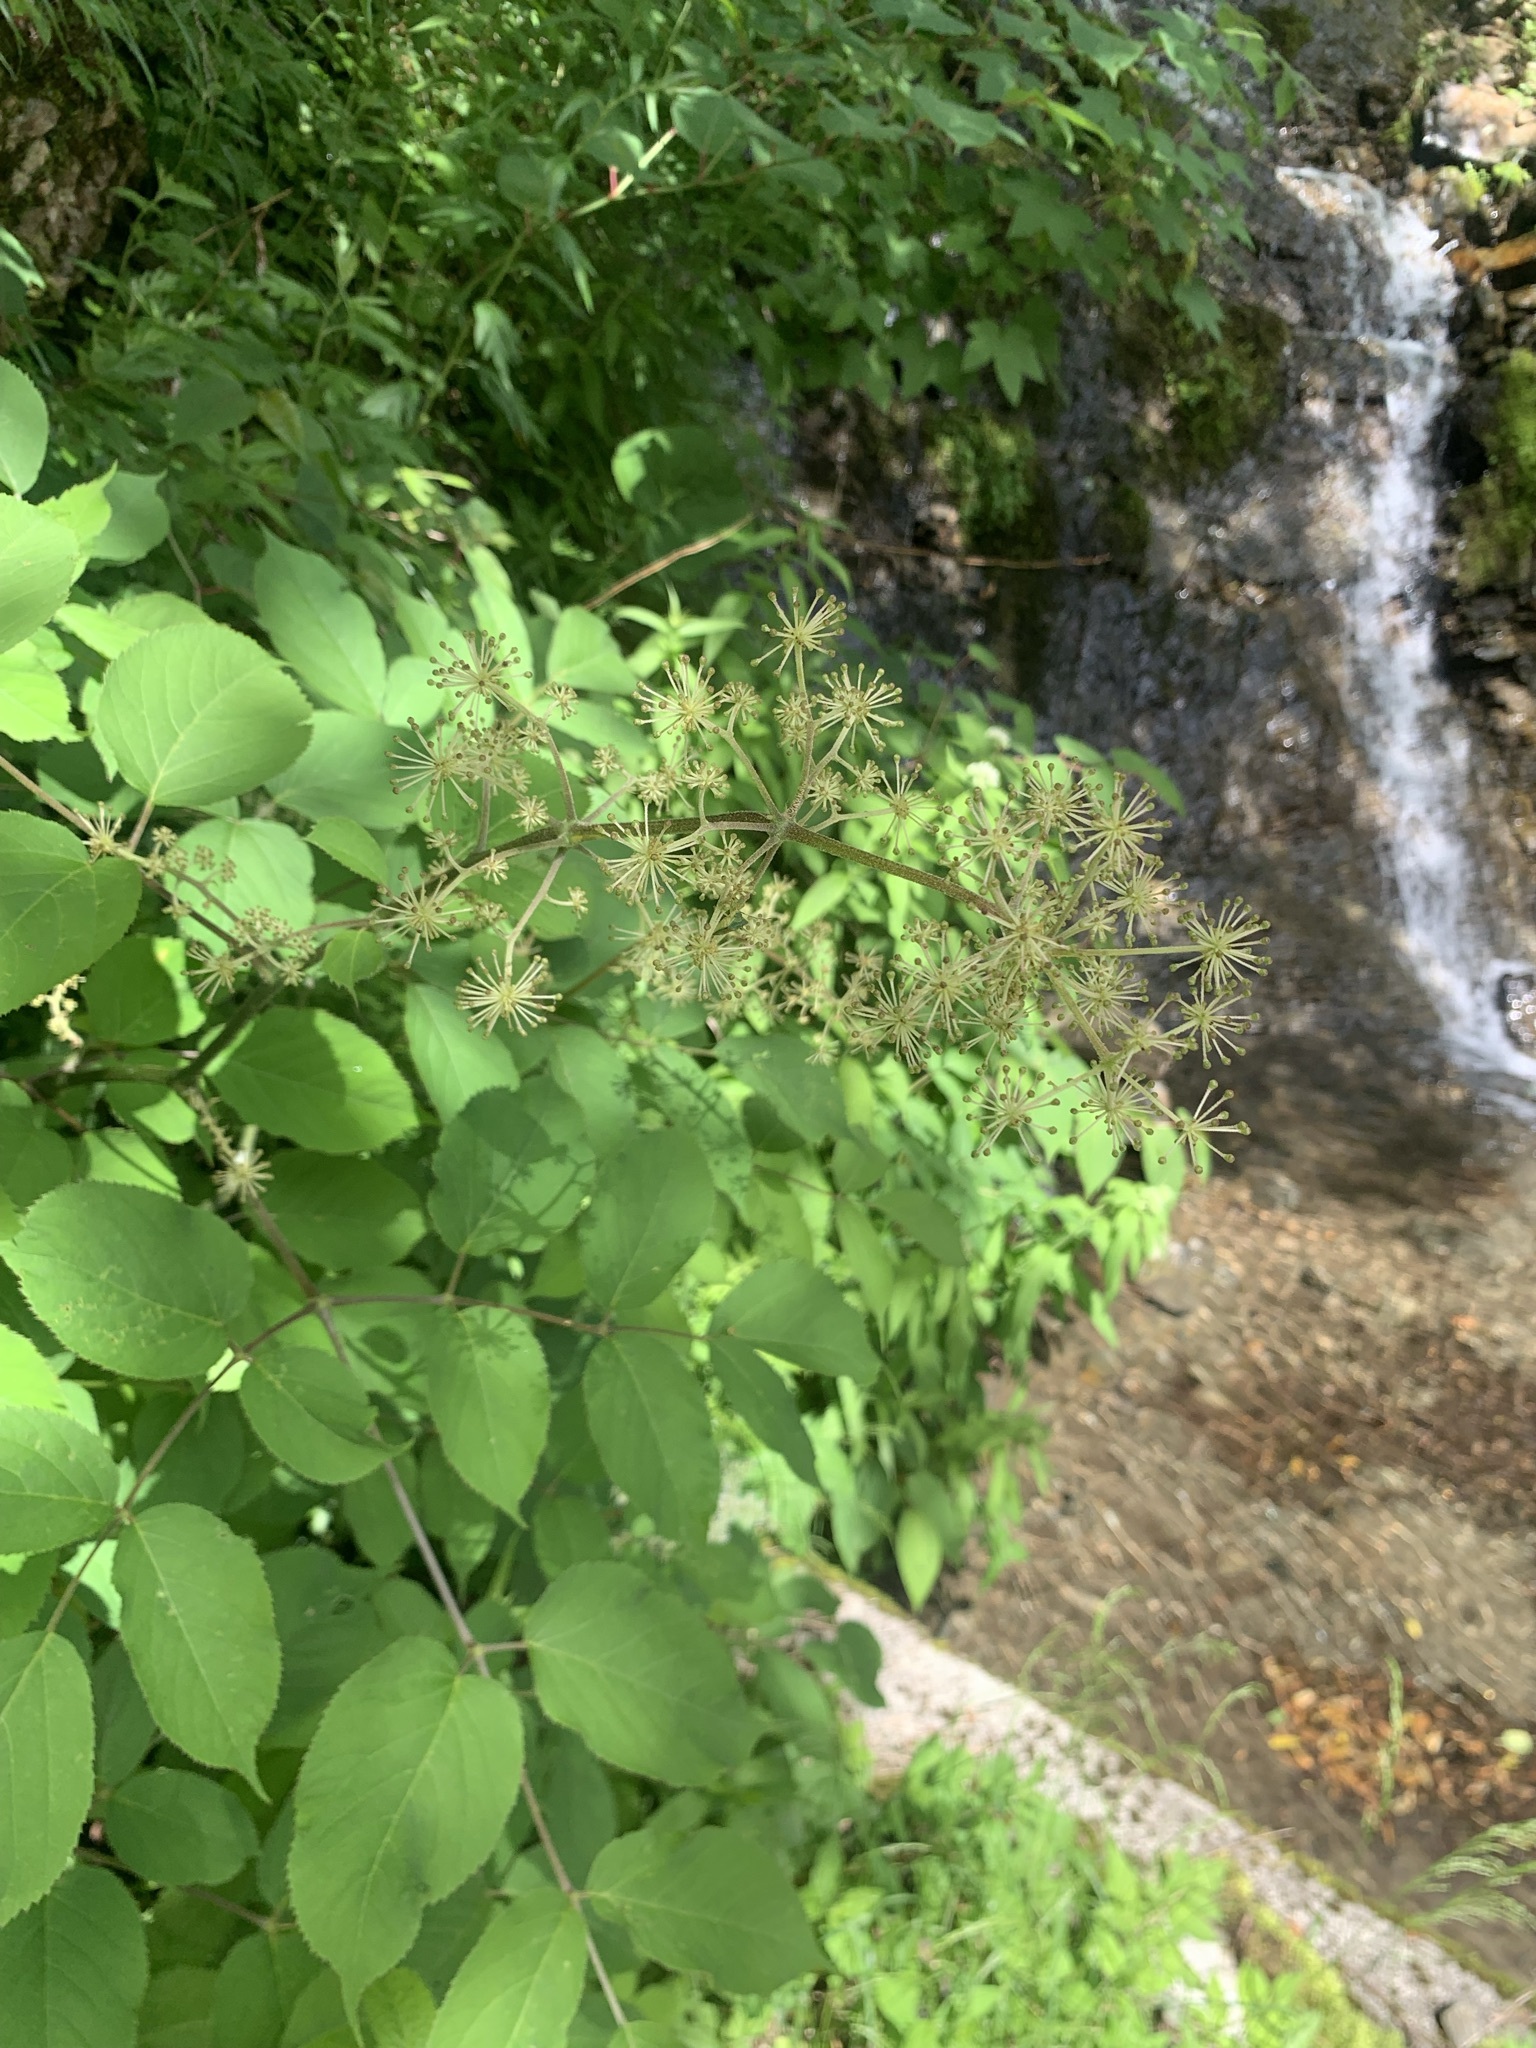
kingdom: Plantae
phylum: Tracheophyta
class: Magnoliopsida
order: Apiales
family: Araliaceae
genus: Aralia
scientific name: Aralia cordata
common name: Udo
